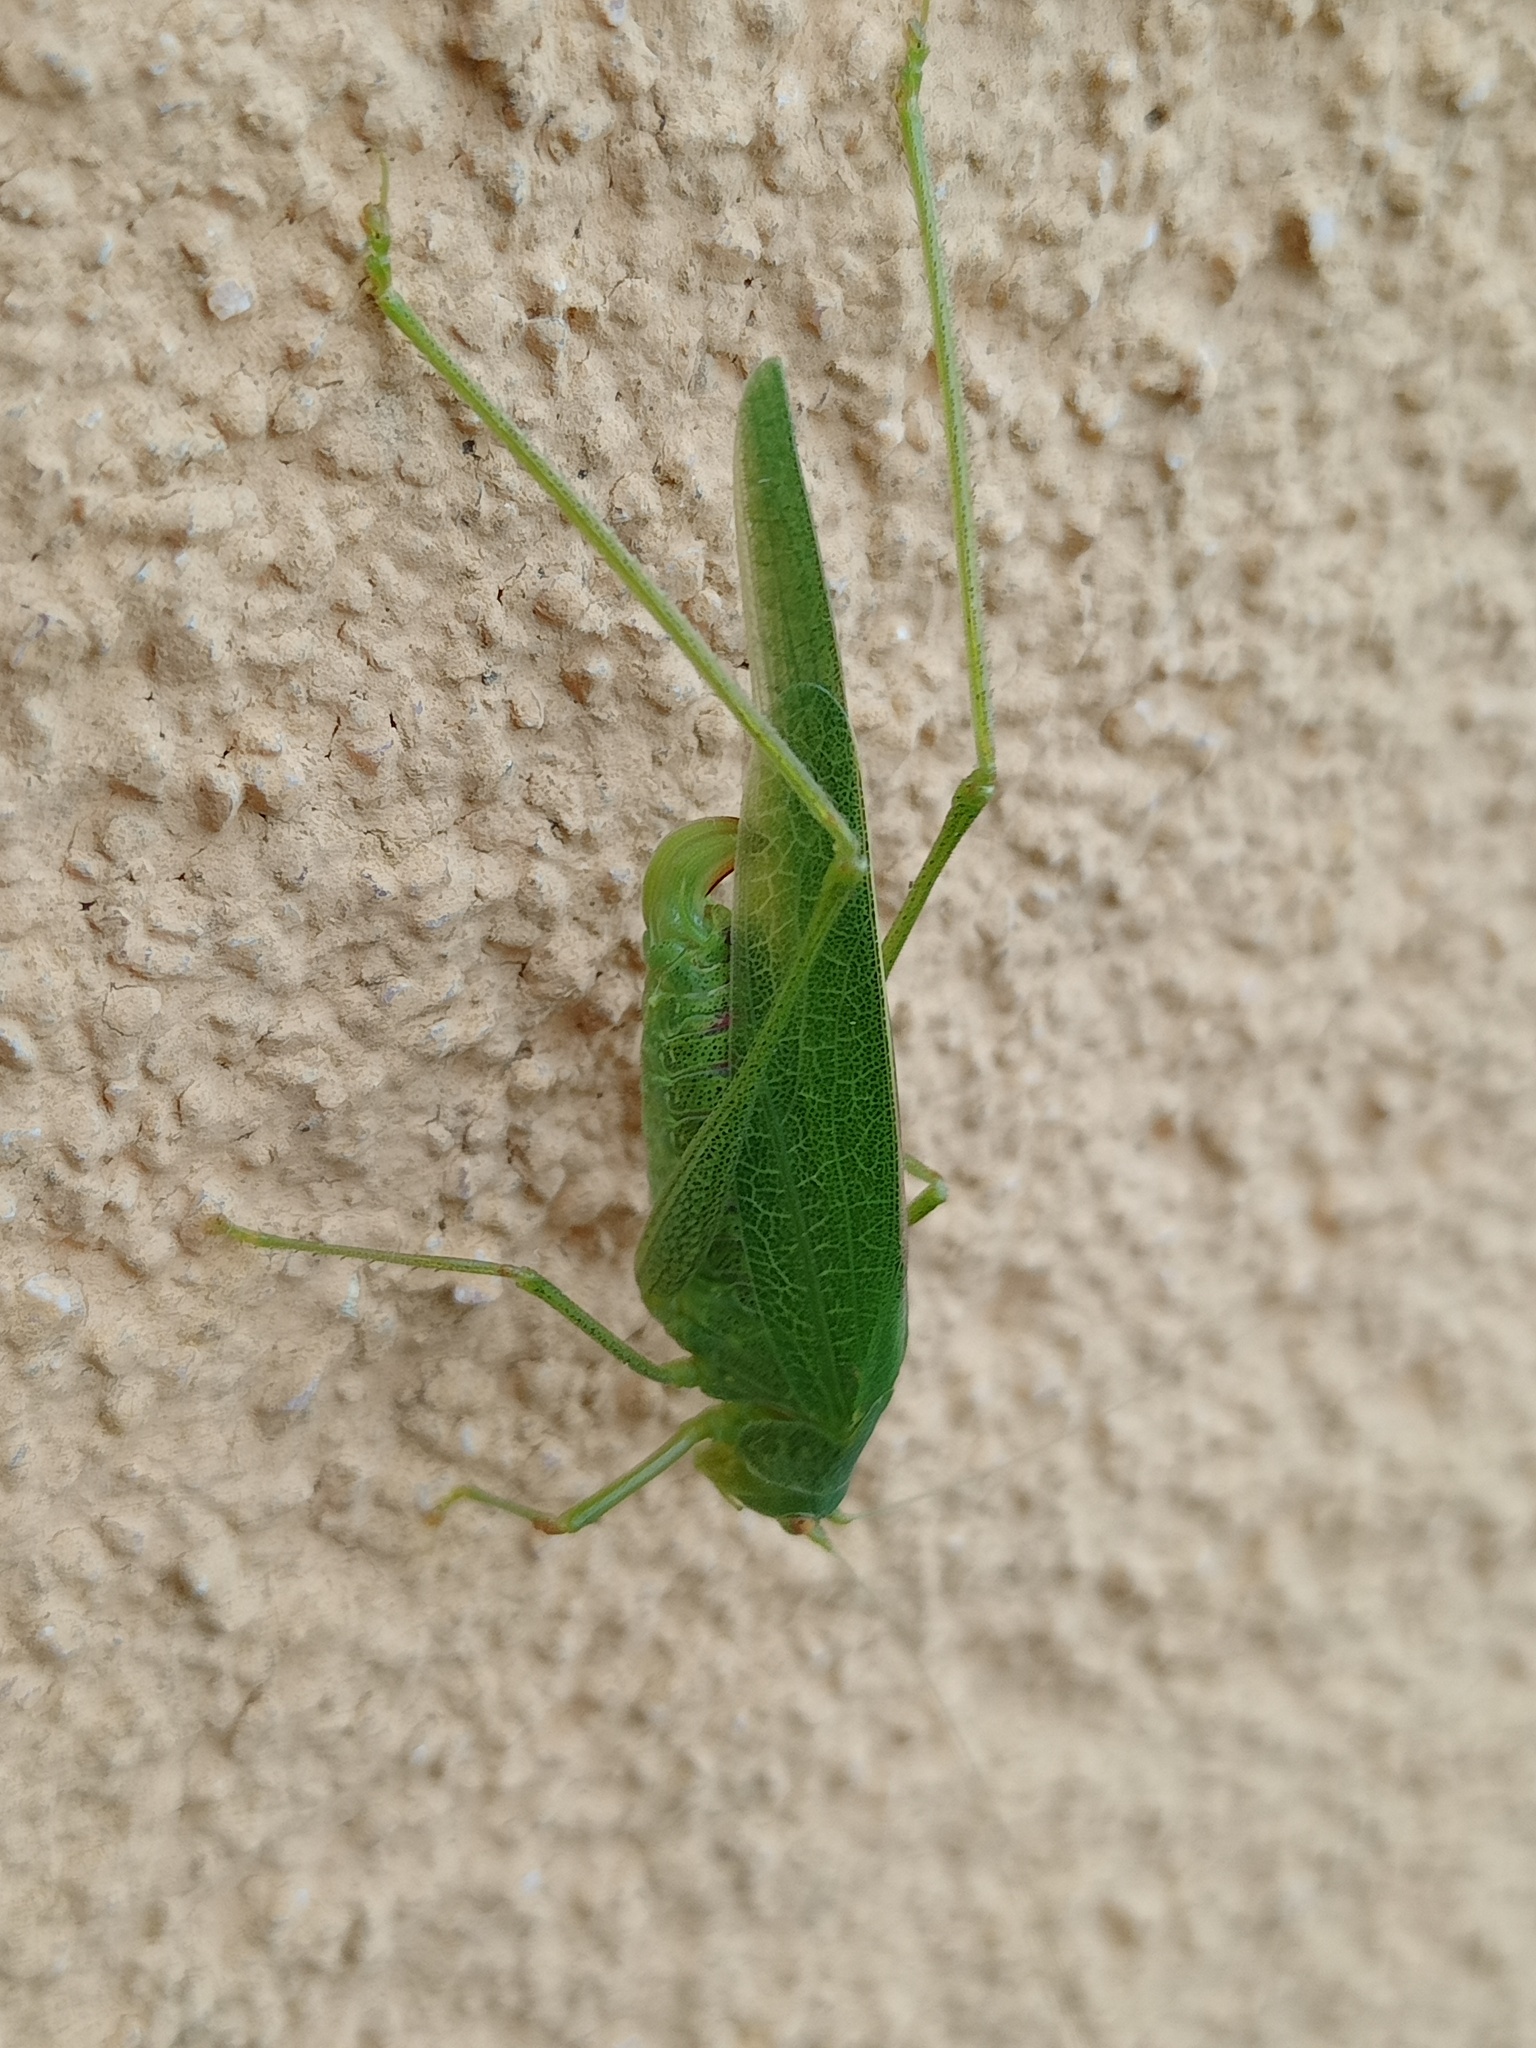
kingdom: Animalia
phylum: Arthropoda
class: Insecta
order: Orthoptera
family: Tettigoniidae
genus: Phaneroptera
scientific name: Phaneroptera nana
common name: Southern sickle bush-cricket
